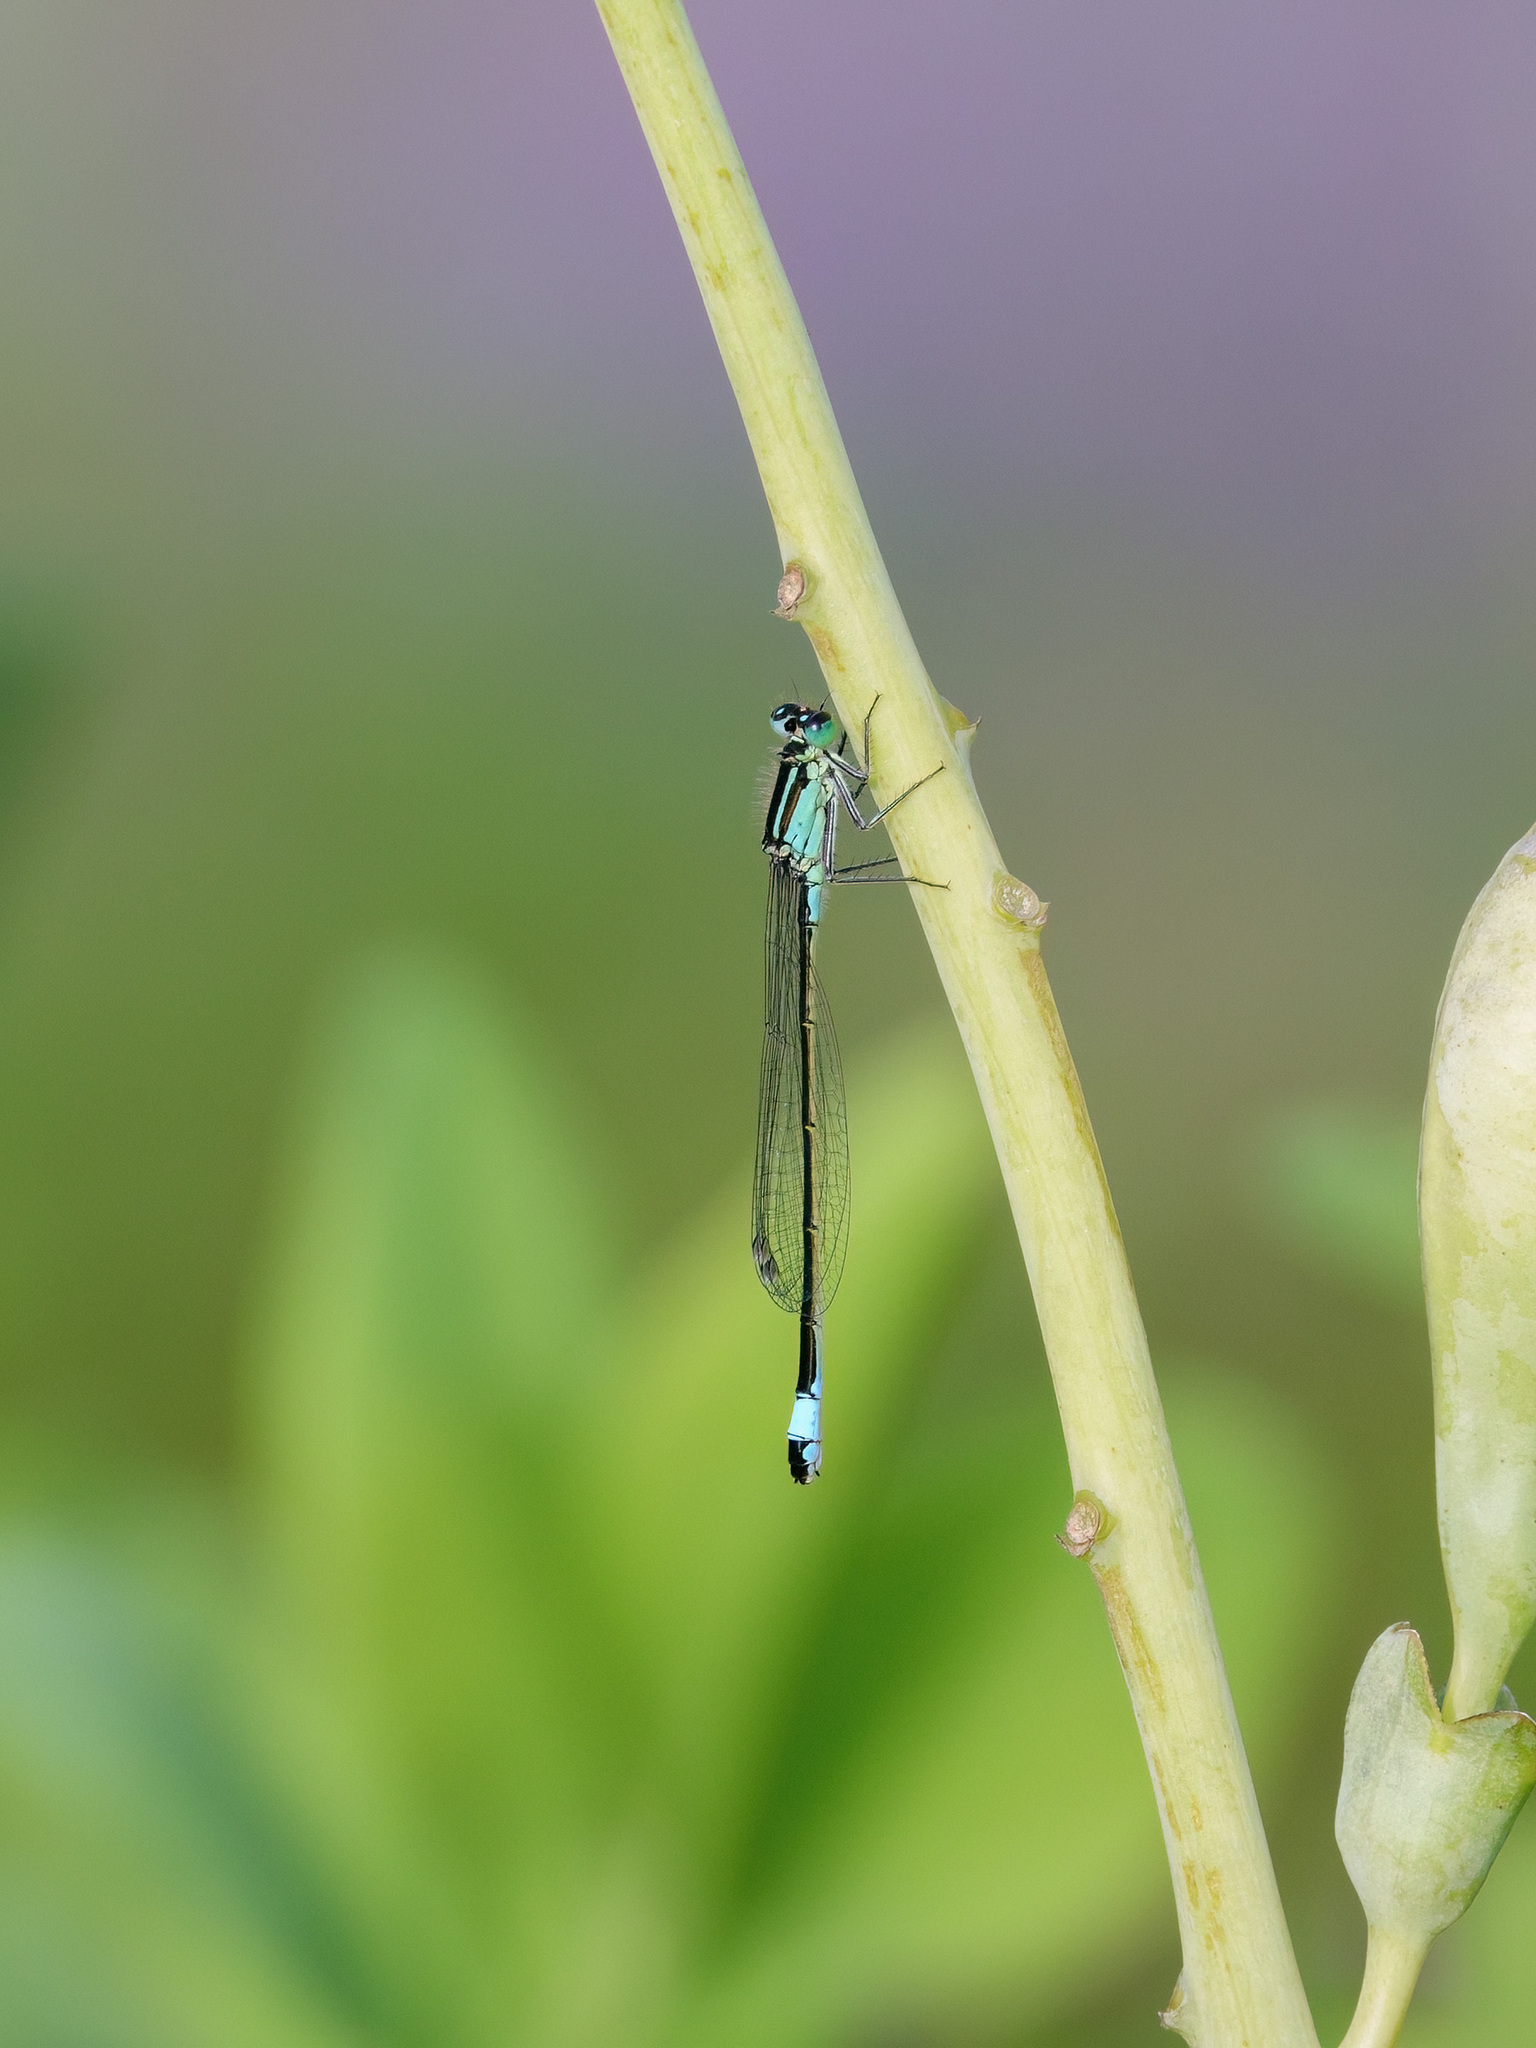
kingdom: Animalia
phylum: Arthropoda
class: Insecta
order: Odonata
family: Coenagrionidae
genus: Ischnura
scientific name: Ischnura elegans
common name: Blue-tailed damselfly
